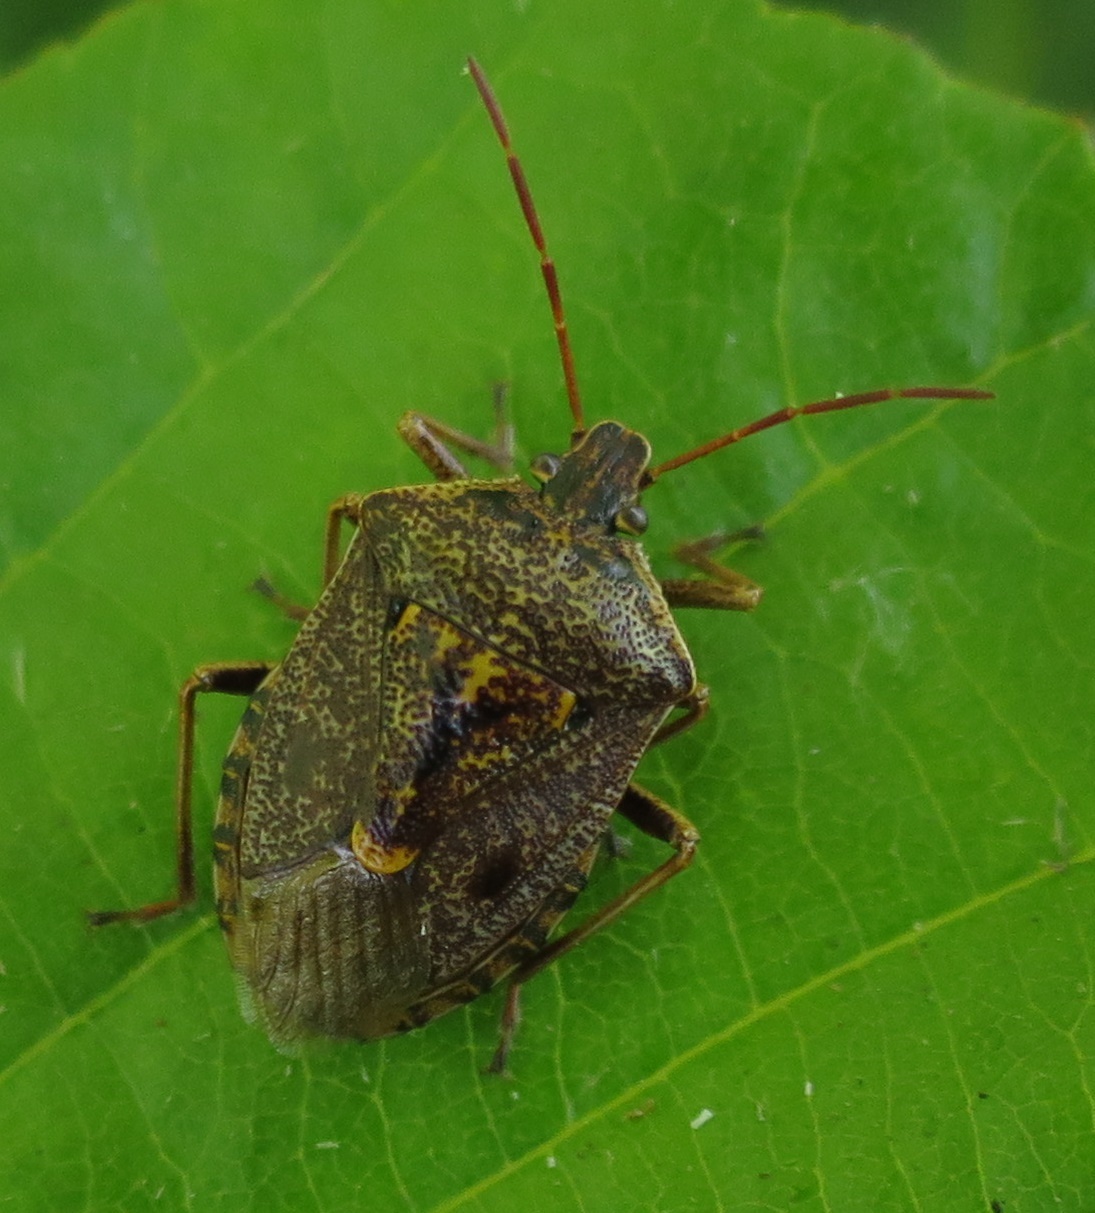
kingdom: Animalia
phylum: Arthropoda
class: Insecta
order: Hemiptera
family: Pentatomidae
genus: Cermatulus
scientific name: Cermatulus nasalis
